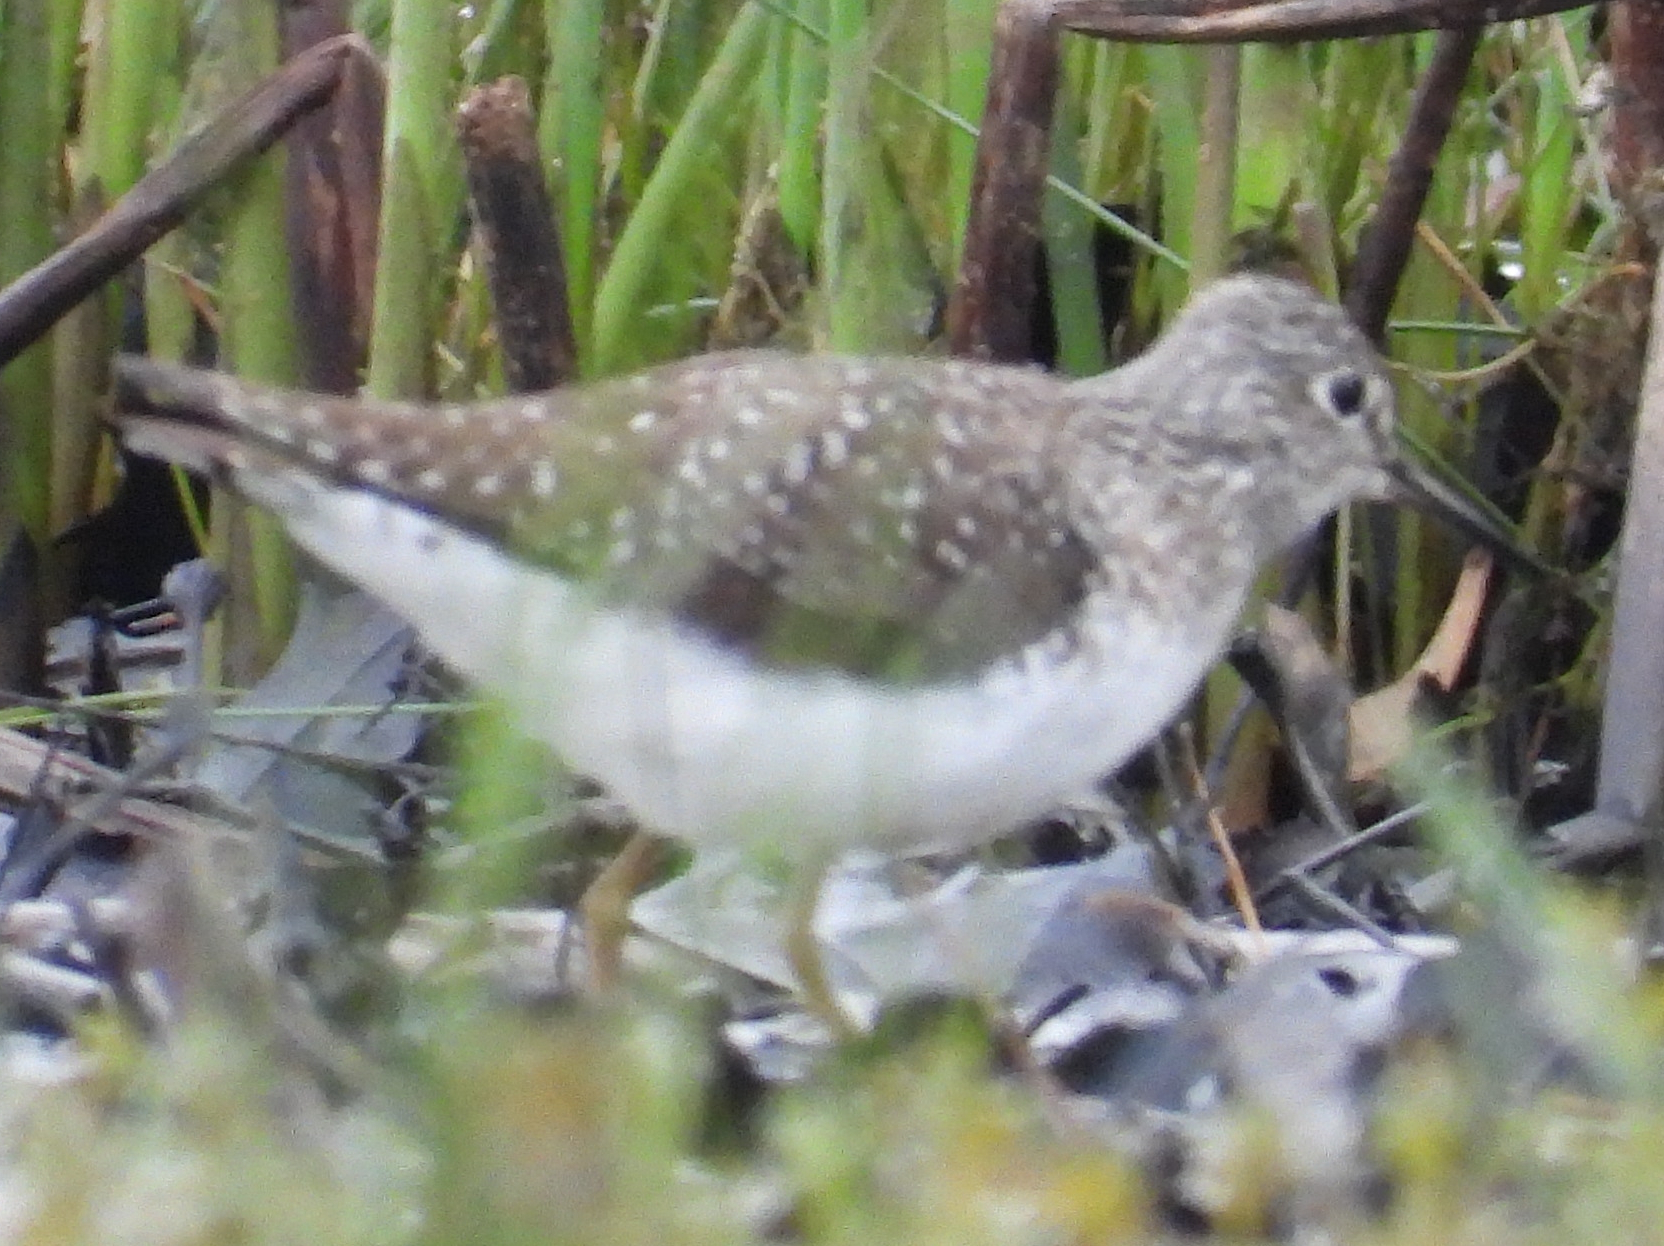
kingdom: Animalia
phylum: Chordata
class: Aves
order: Charadriiformes
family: Scolopacidae
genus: Tringa
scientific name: Tringa solitaria
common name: Solitary sandpiper
